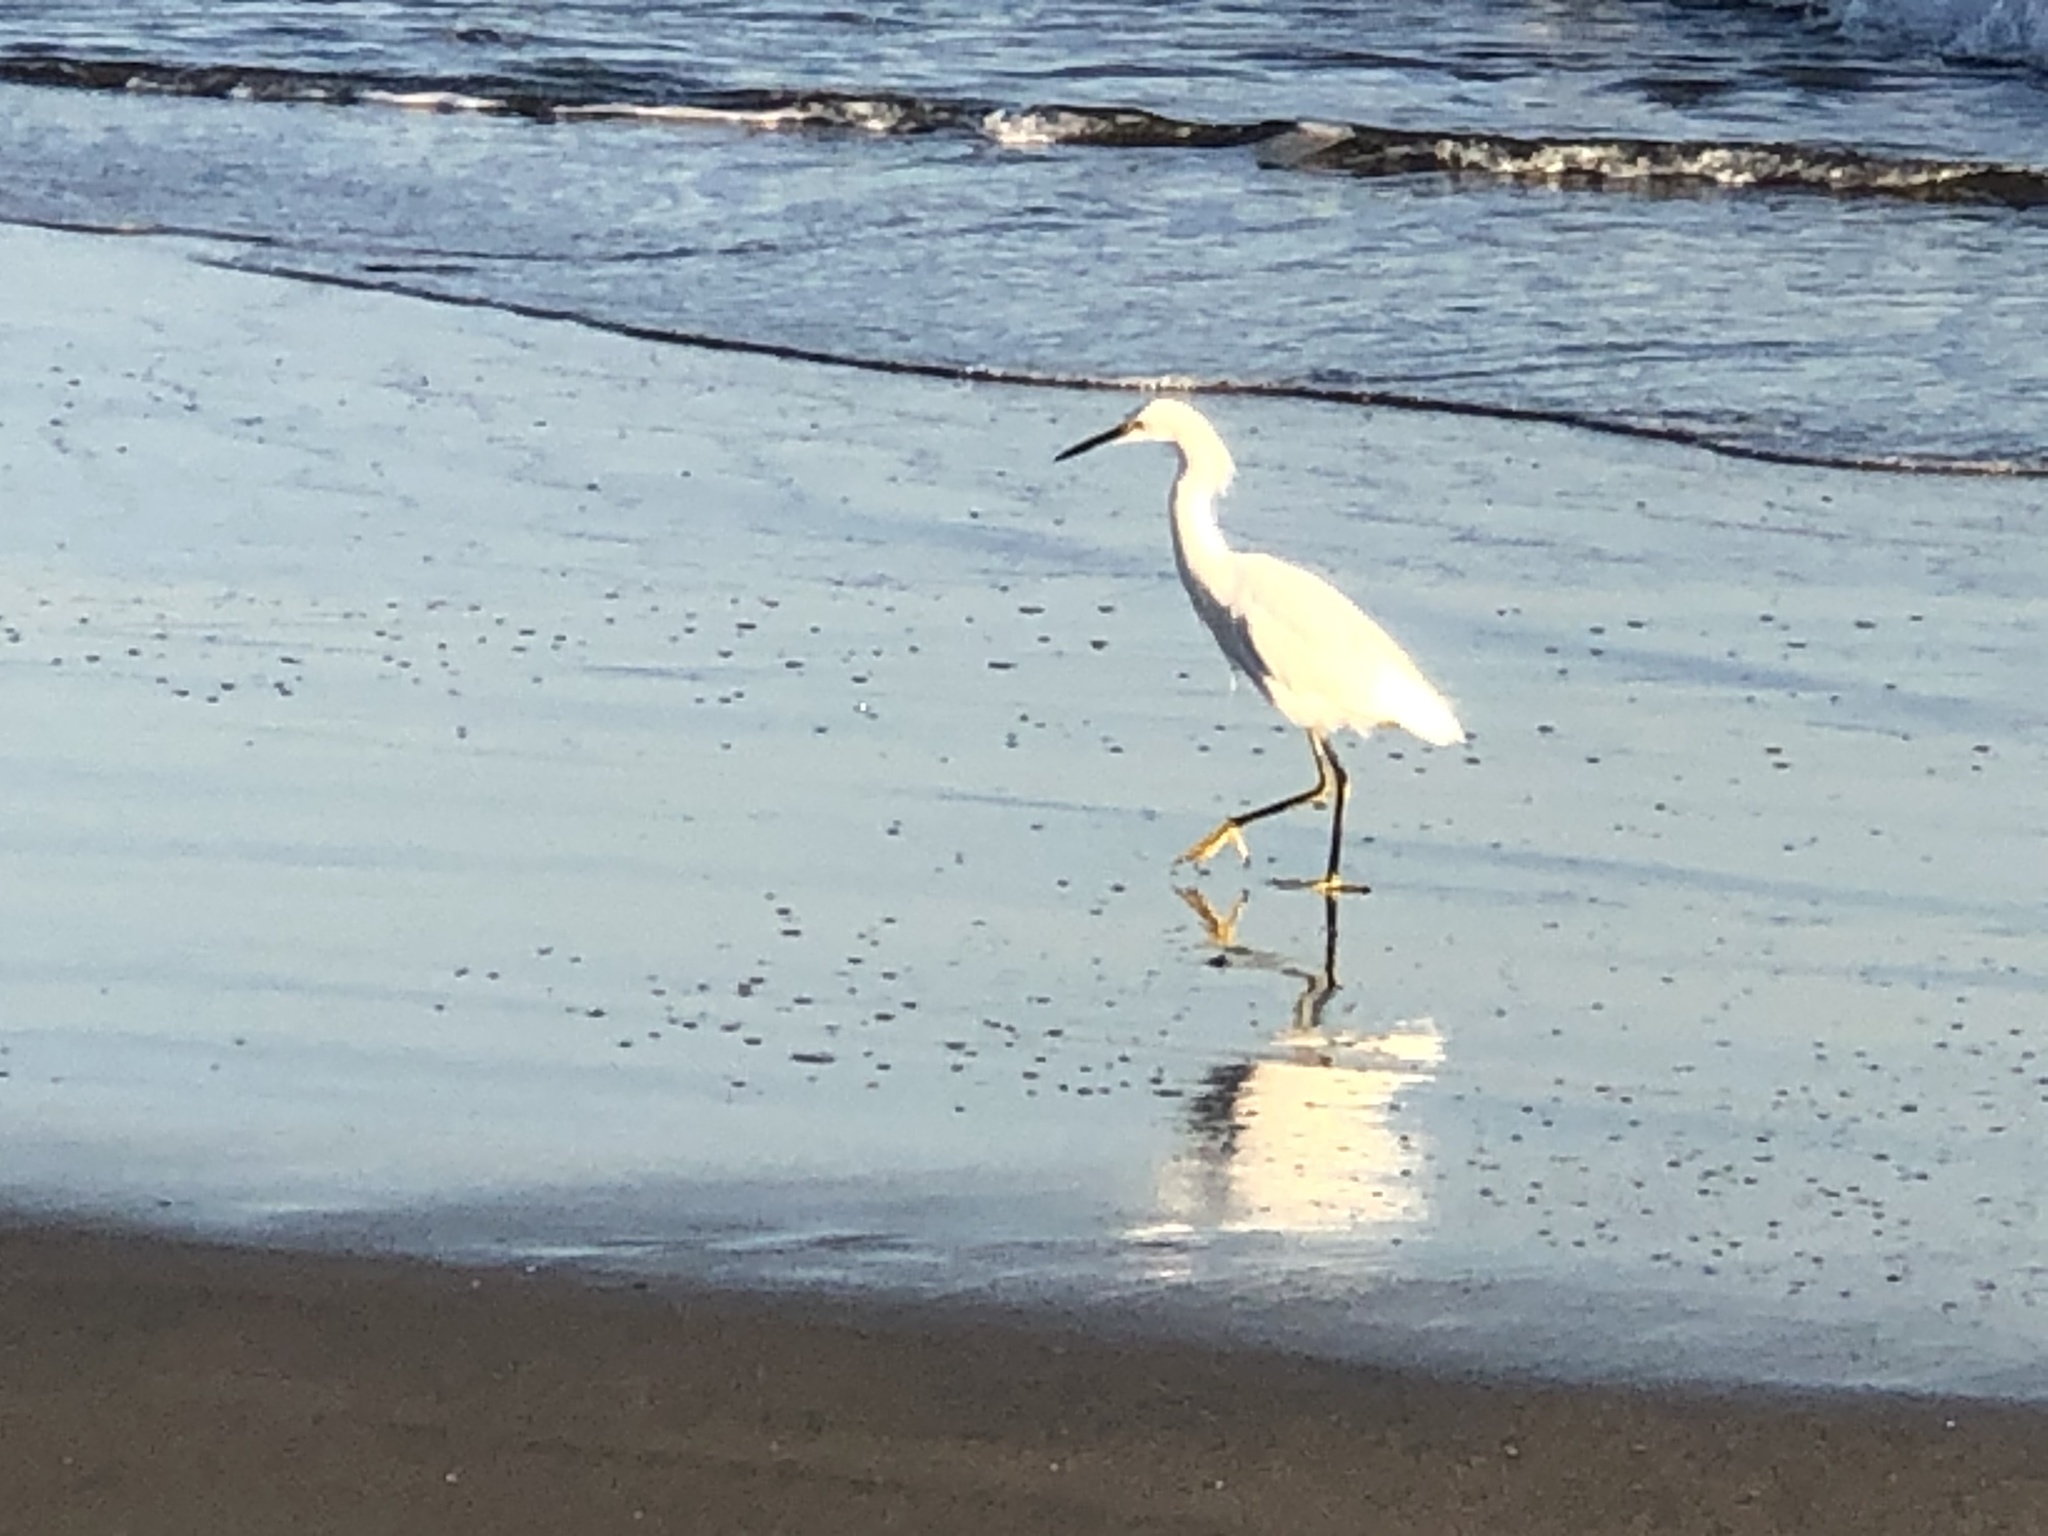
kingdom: Animalia
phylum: Chordata
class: Aves
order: Pelecaniformes
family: Ardeidae
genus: Egretta
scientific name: Egretta thula
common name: Snowy egret
